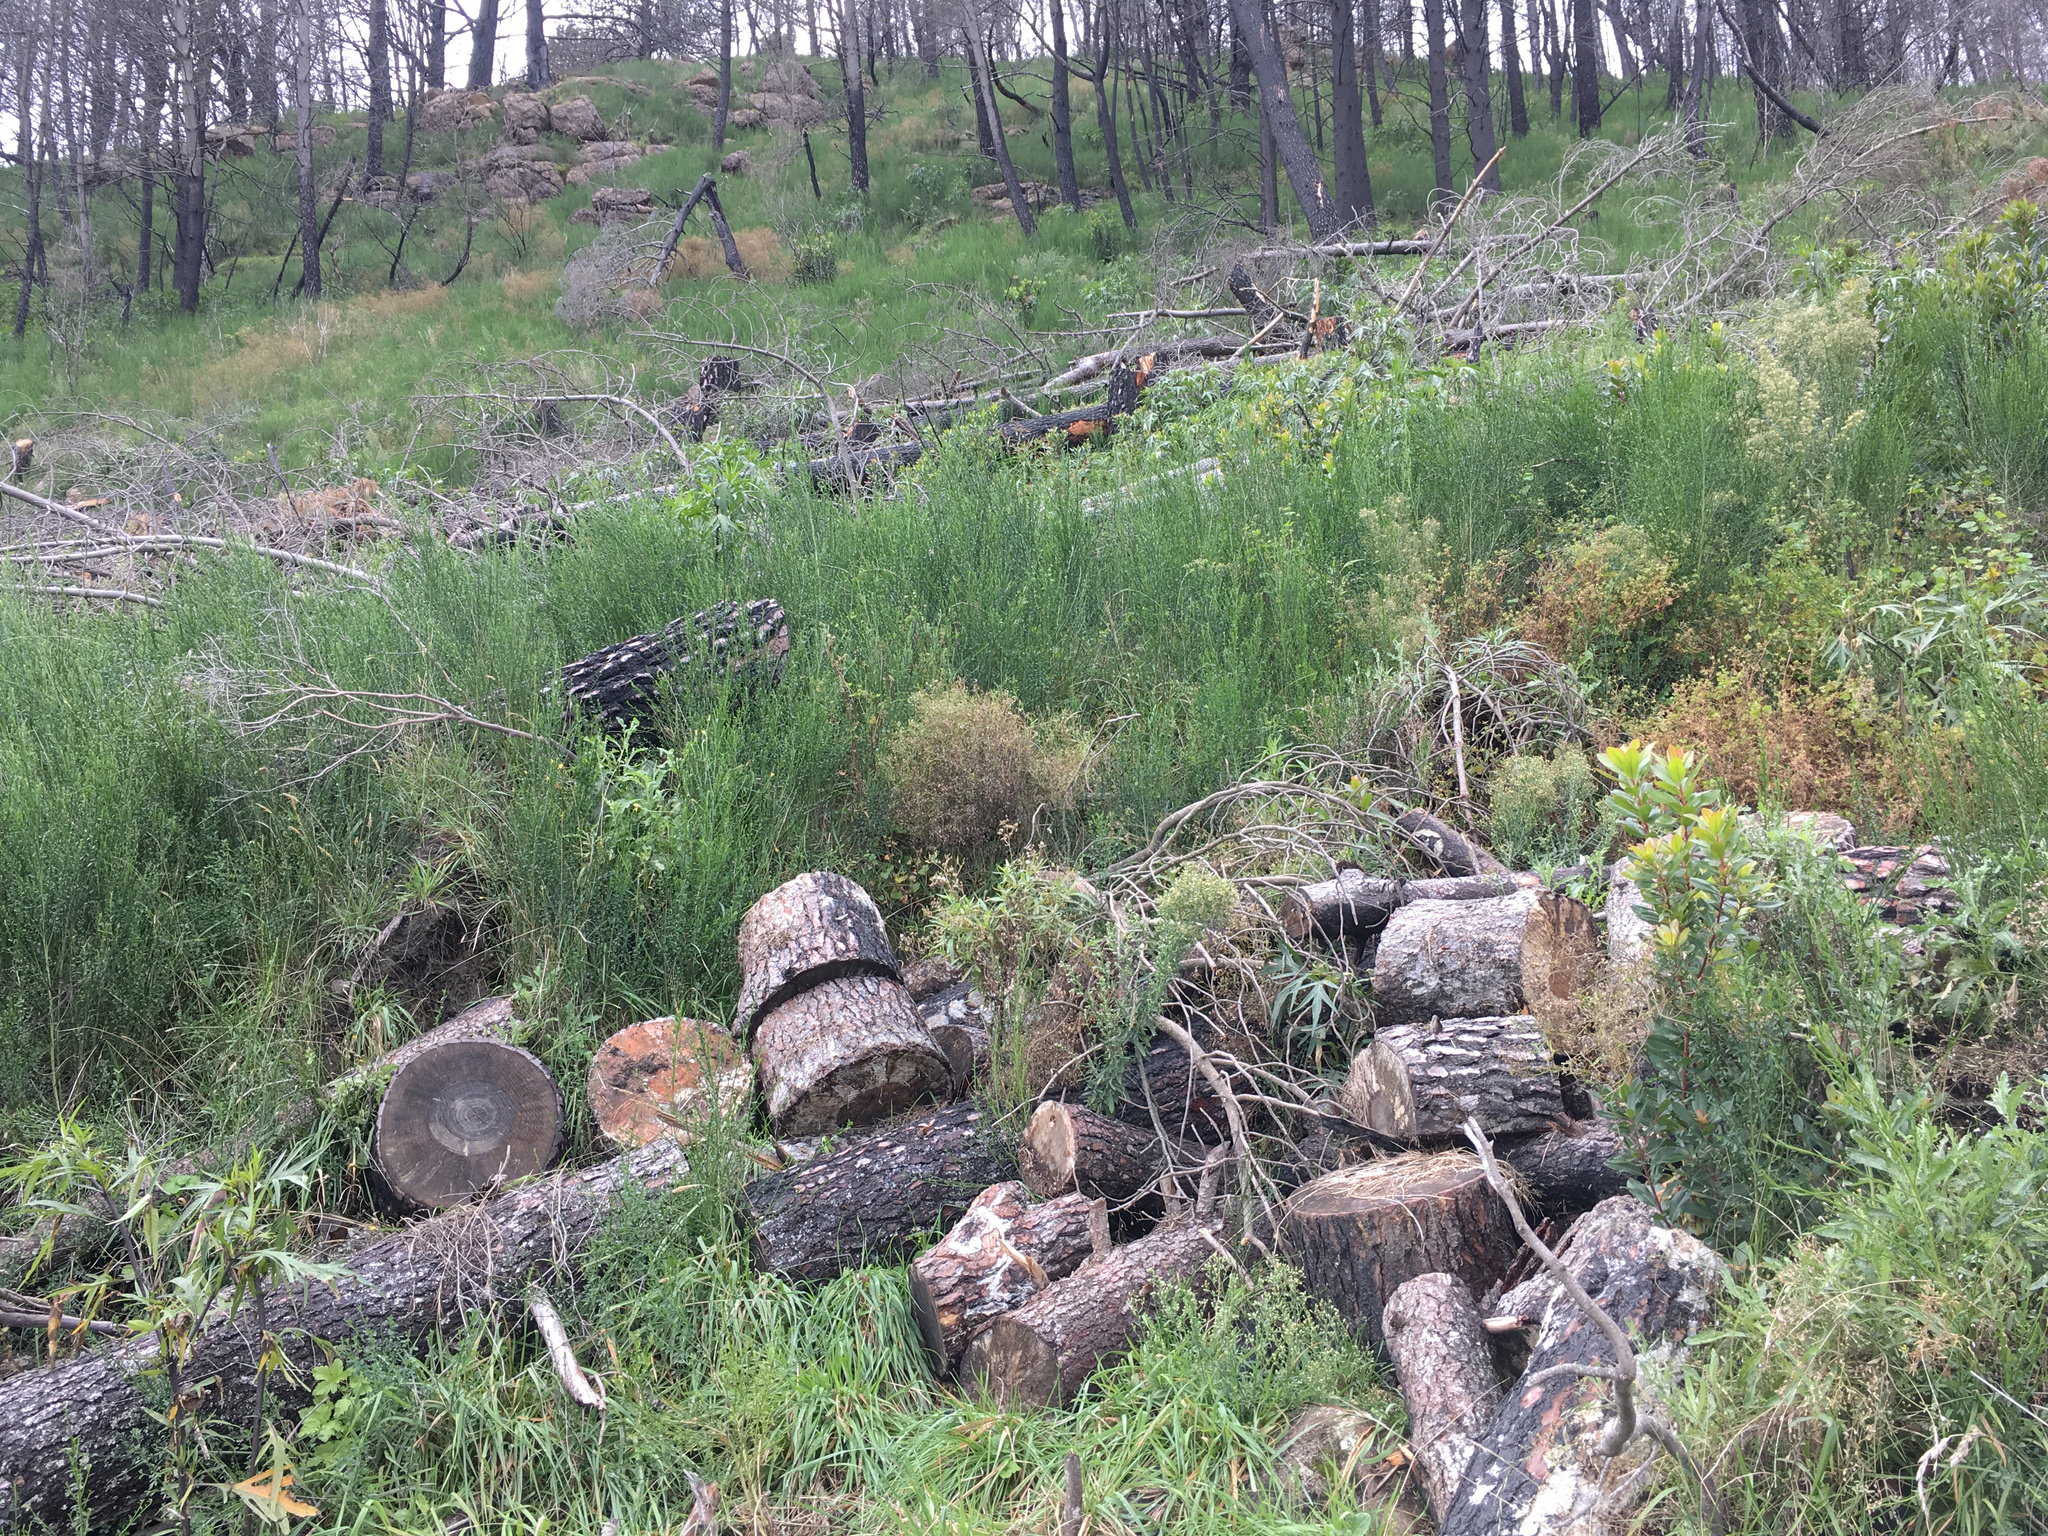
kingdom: Plantae
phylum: Tracheophyta
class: Magnoliopsida
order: Fabales
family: Fabaceae
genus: Cytisus
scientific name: Cytisus scoparius
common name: Scotch broom
